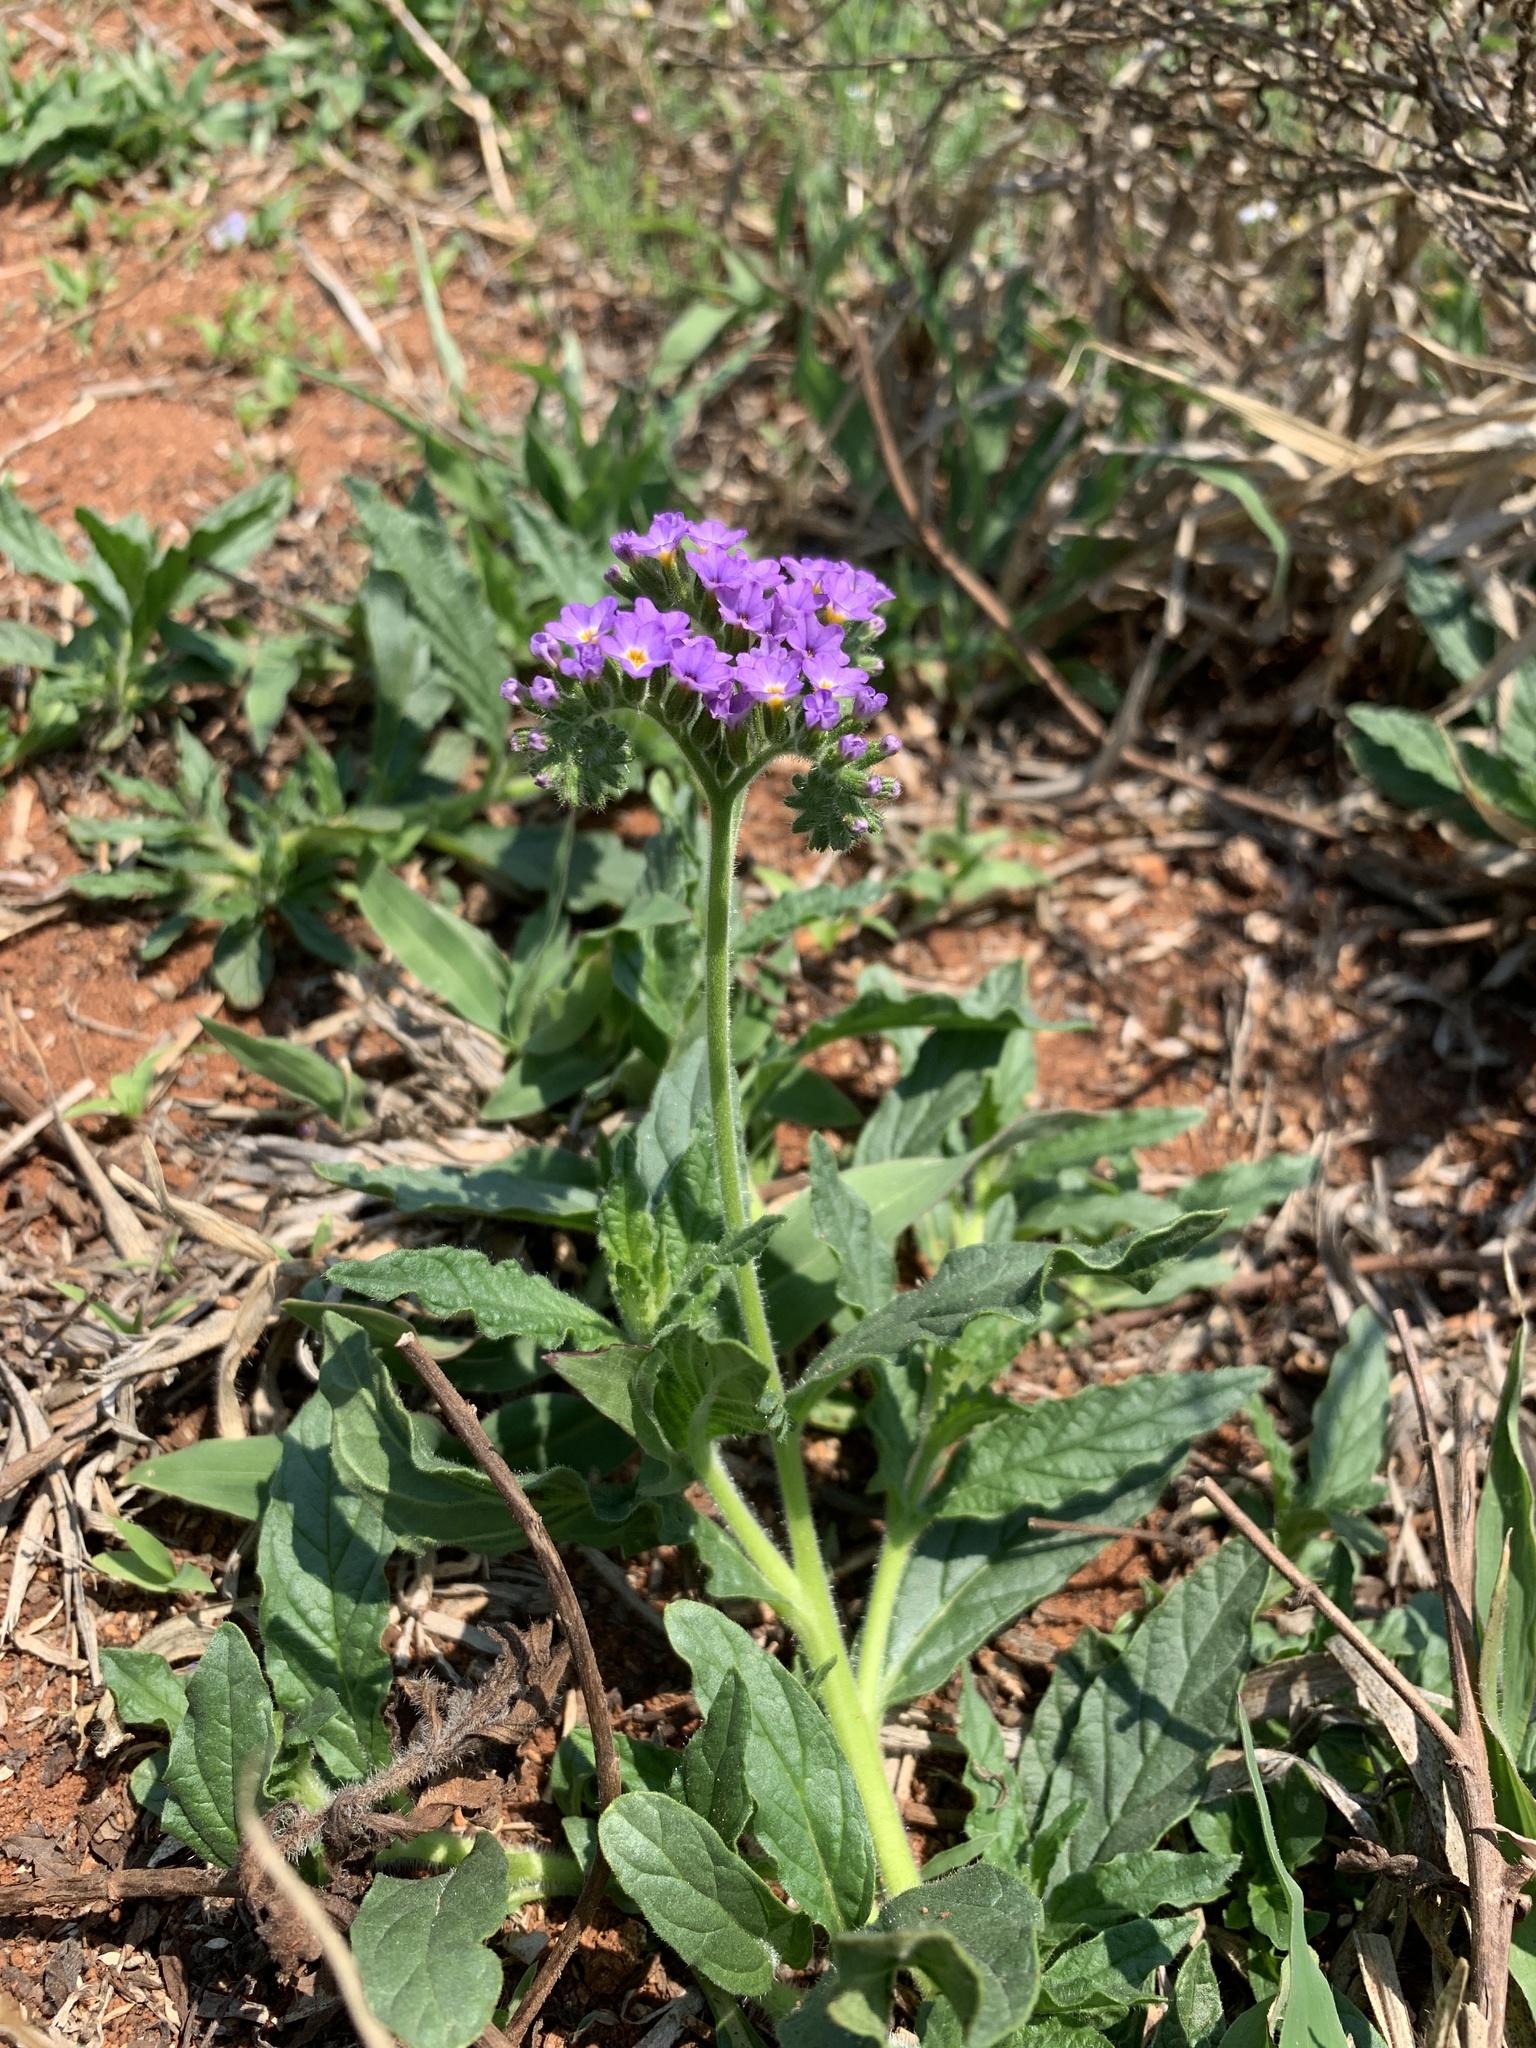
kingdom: Plantae
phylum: Tracheophyta
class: Magnoliopsida
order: Boraginales
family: Heliotropiaceae
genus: Heliotropium
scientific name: Heliotropium amplexicaule
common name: Clasping heliotrope
